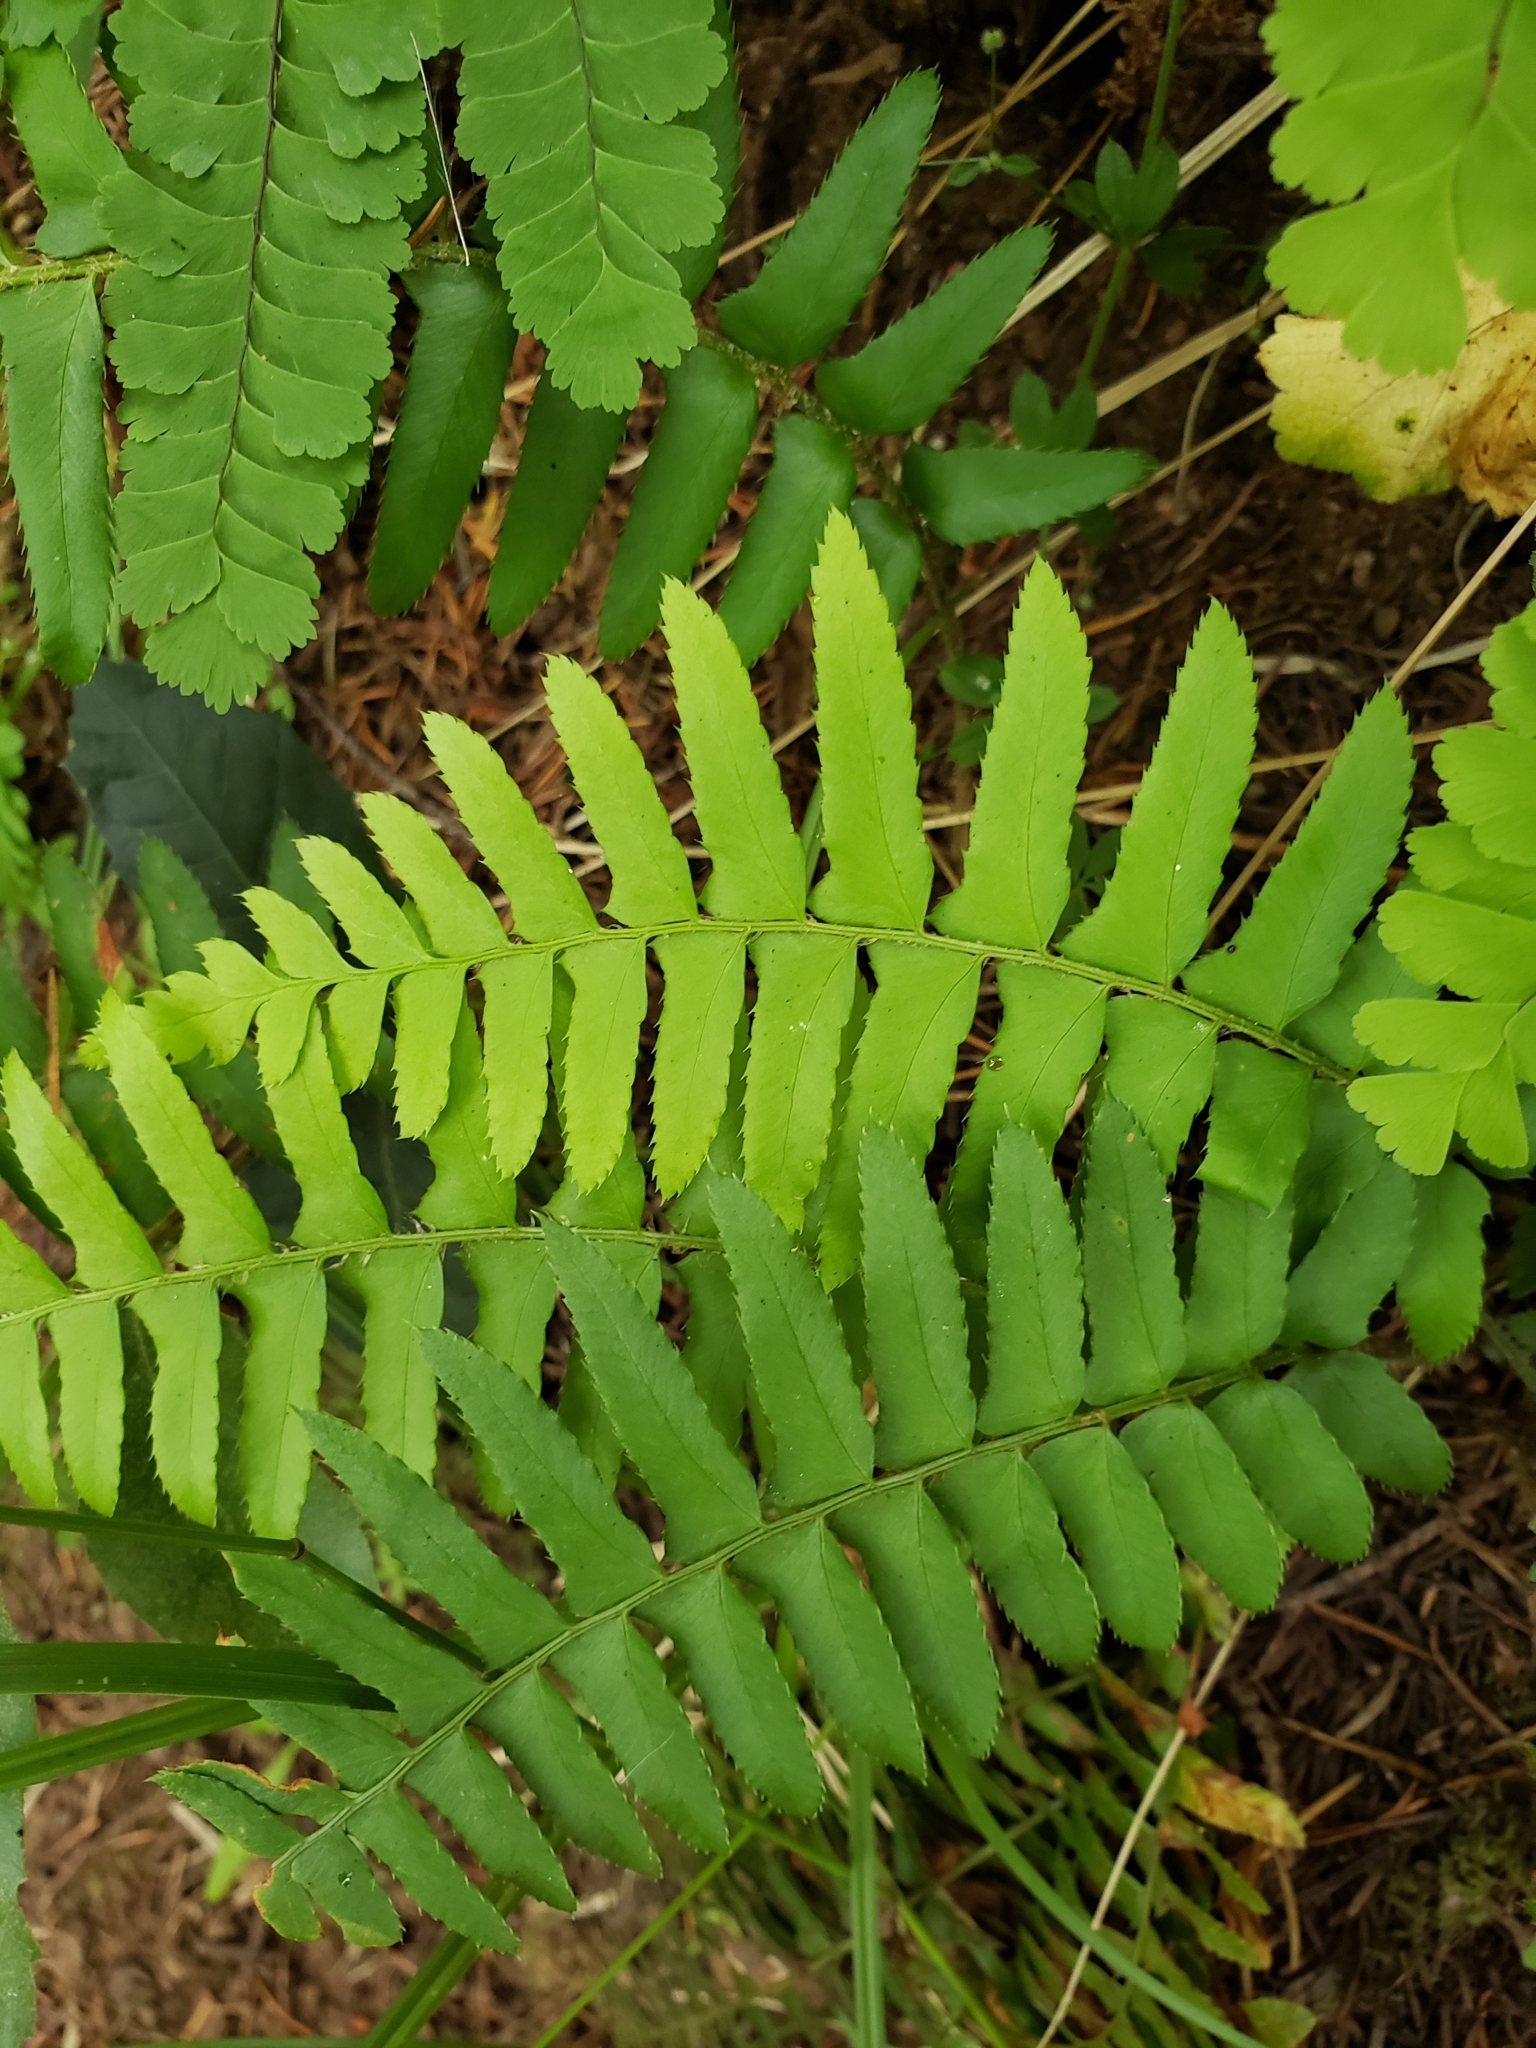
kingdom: Plantae
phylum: Tracheophyta
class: Polypodiopsida
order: Polypodiales
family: Dryopteridaceae
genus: Polystichum
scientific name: Polystichum munitum
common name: Western sword-fern
